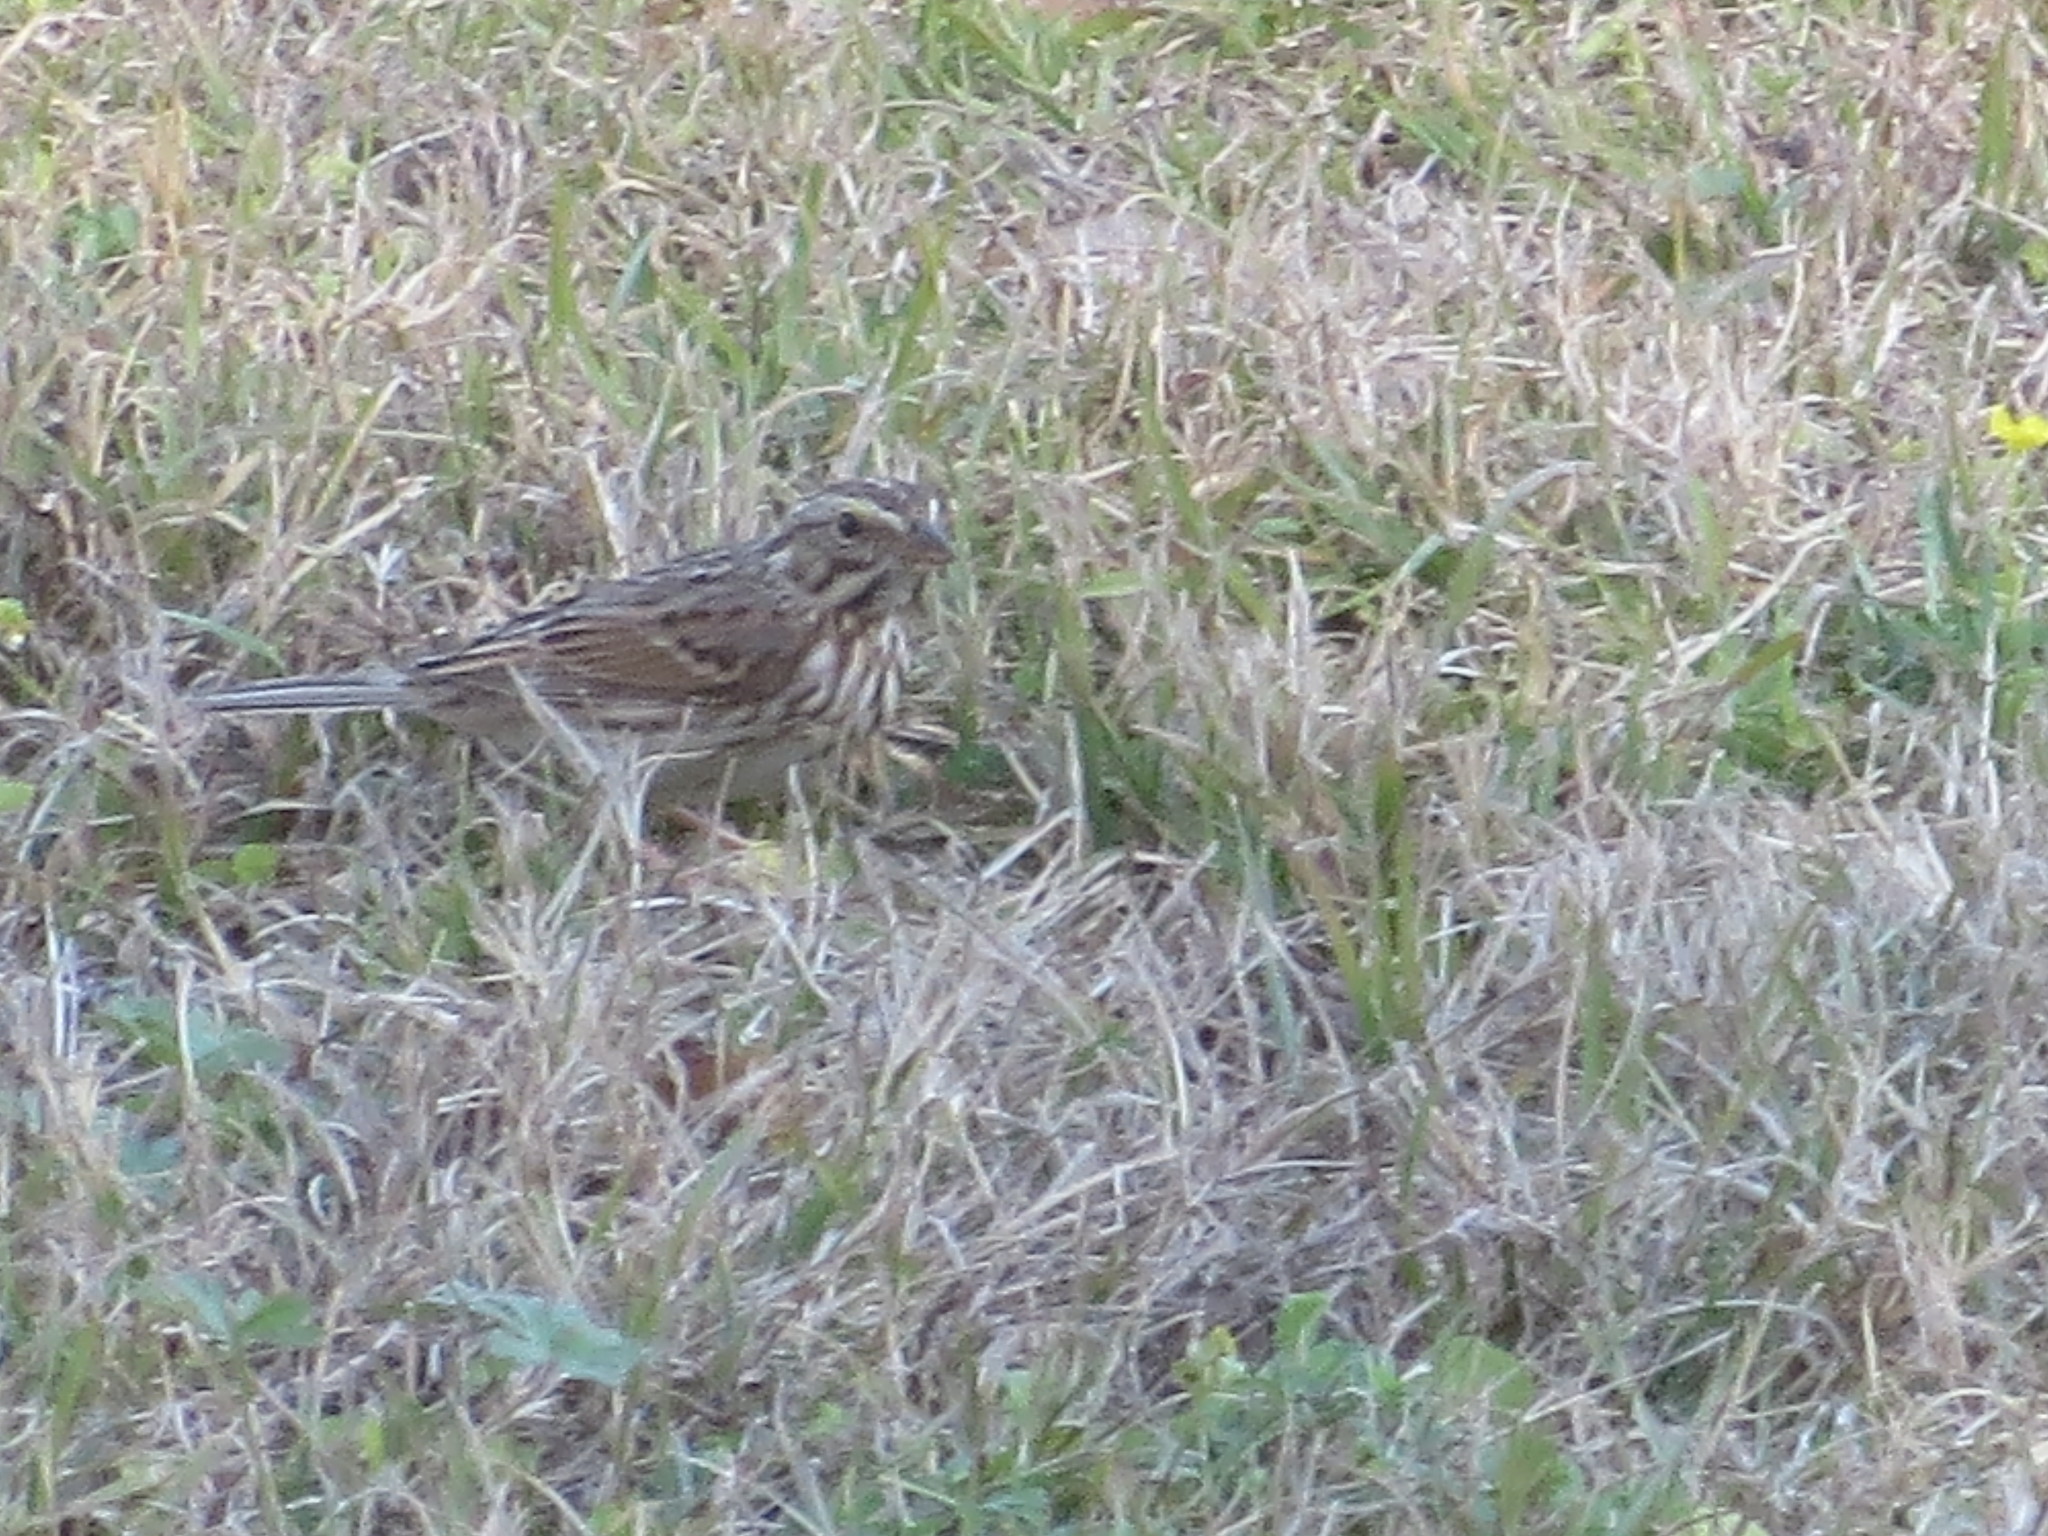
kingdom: Animalia
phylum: Chordata
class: Aves
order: Passeriformes
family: Passerellidae
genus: Passerculus
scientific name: Passerculus sandwichensis
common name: Savannah sparrow
